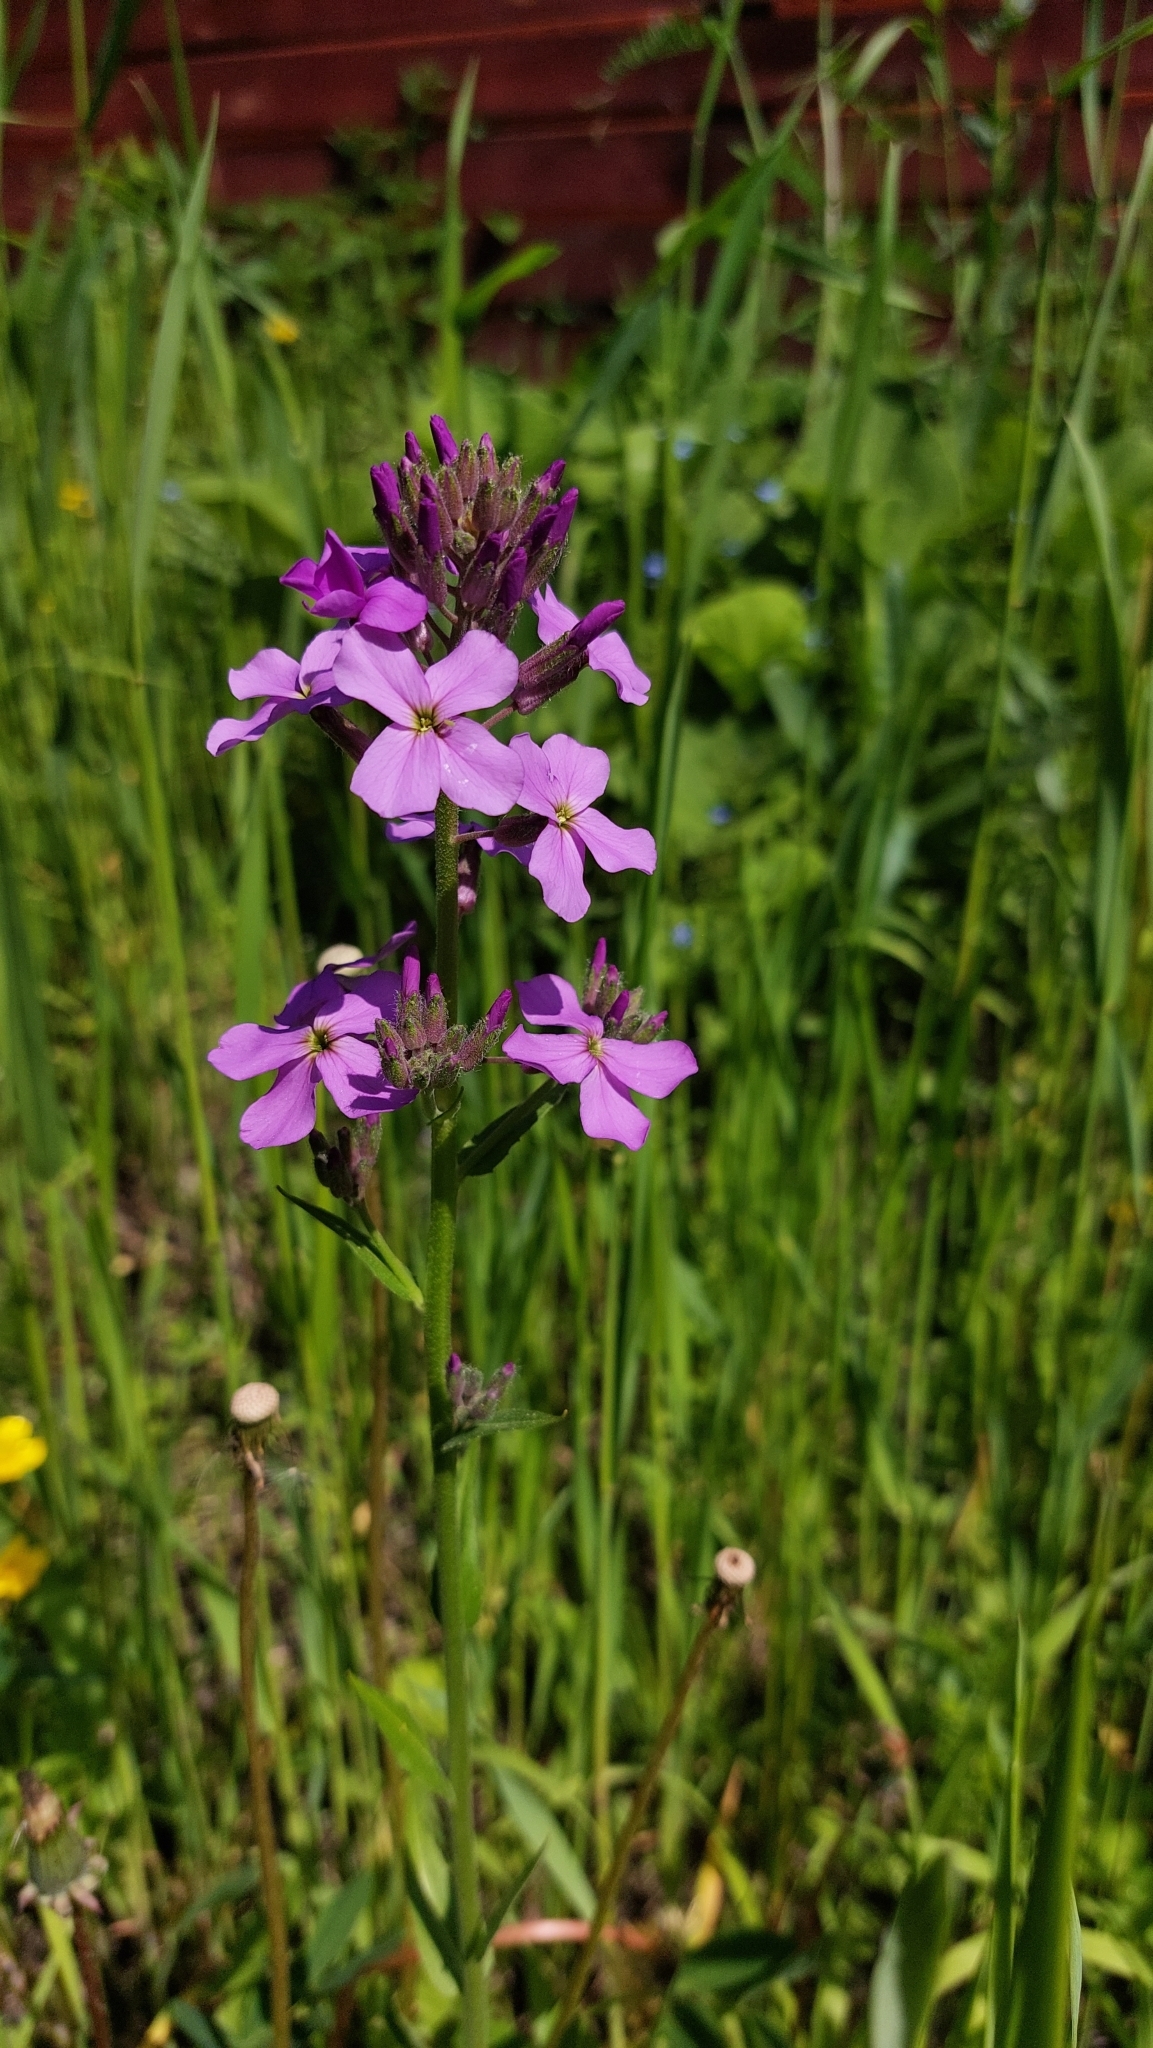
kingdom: Plantae
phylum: Tracheophyta
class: Magnoliopsida
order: Brassicales
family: Brassicaceae
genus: Hesperis
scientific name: Hesperis matronalis
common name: Dame's-violet
